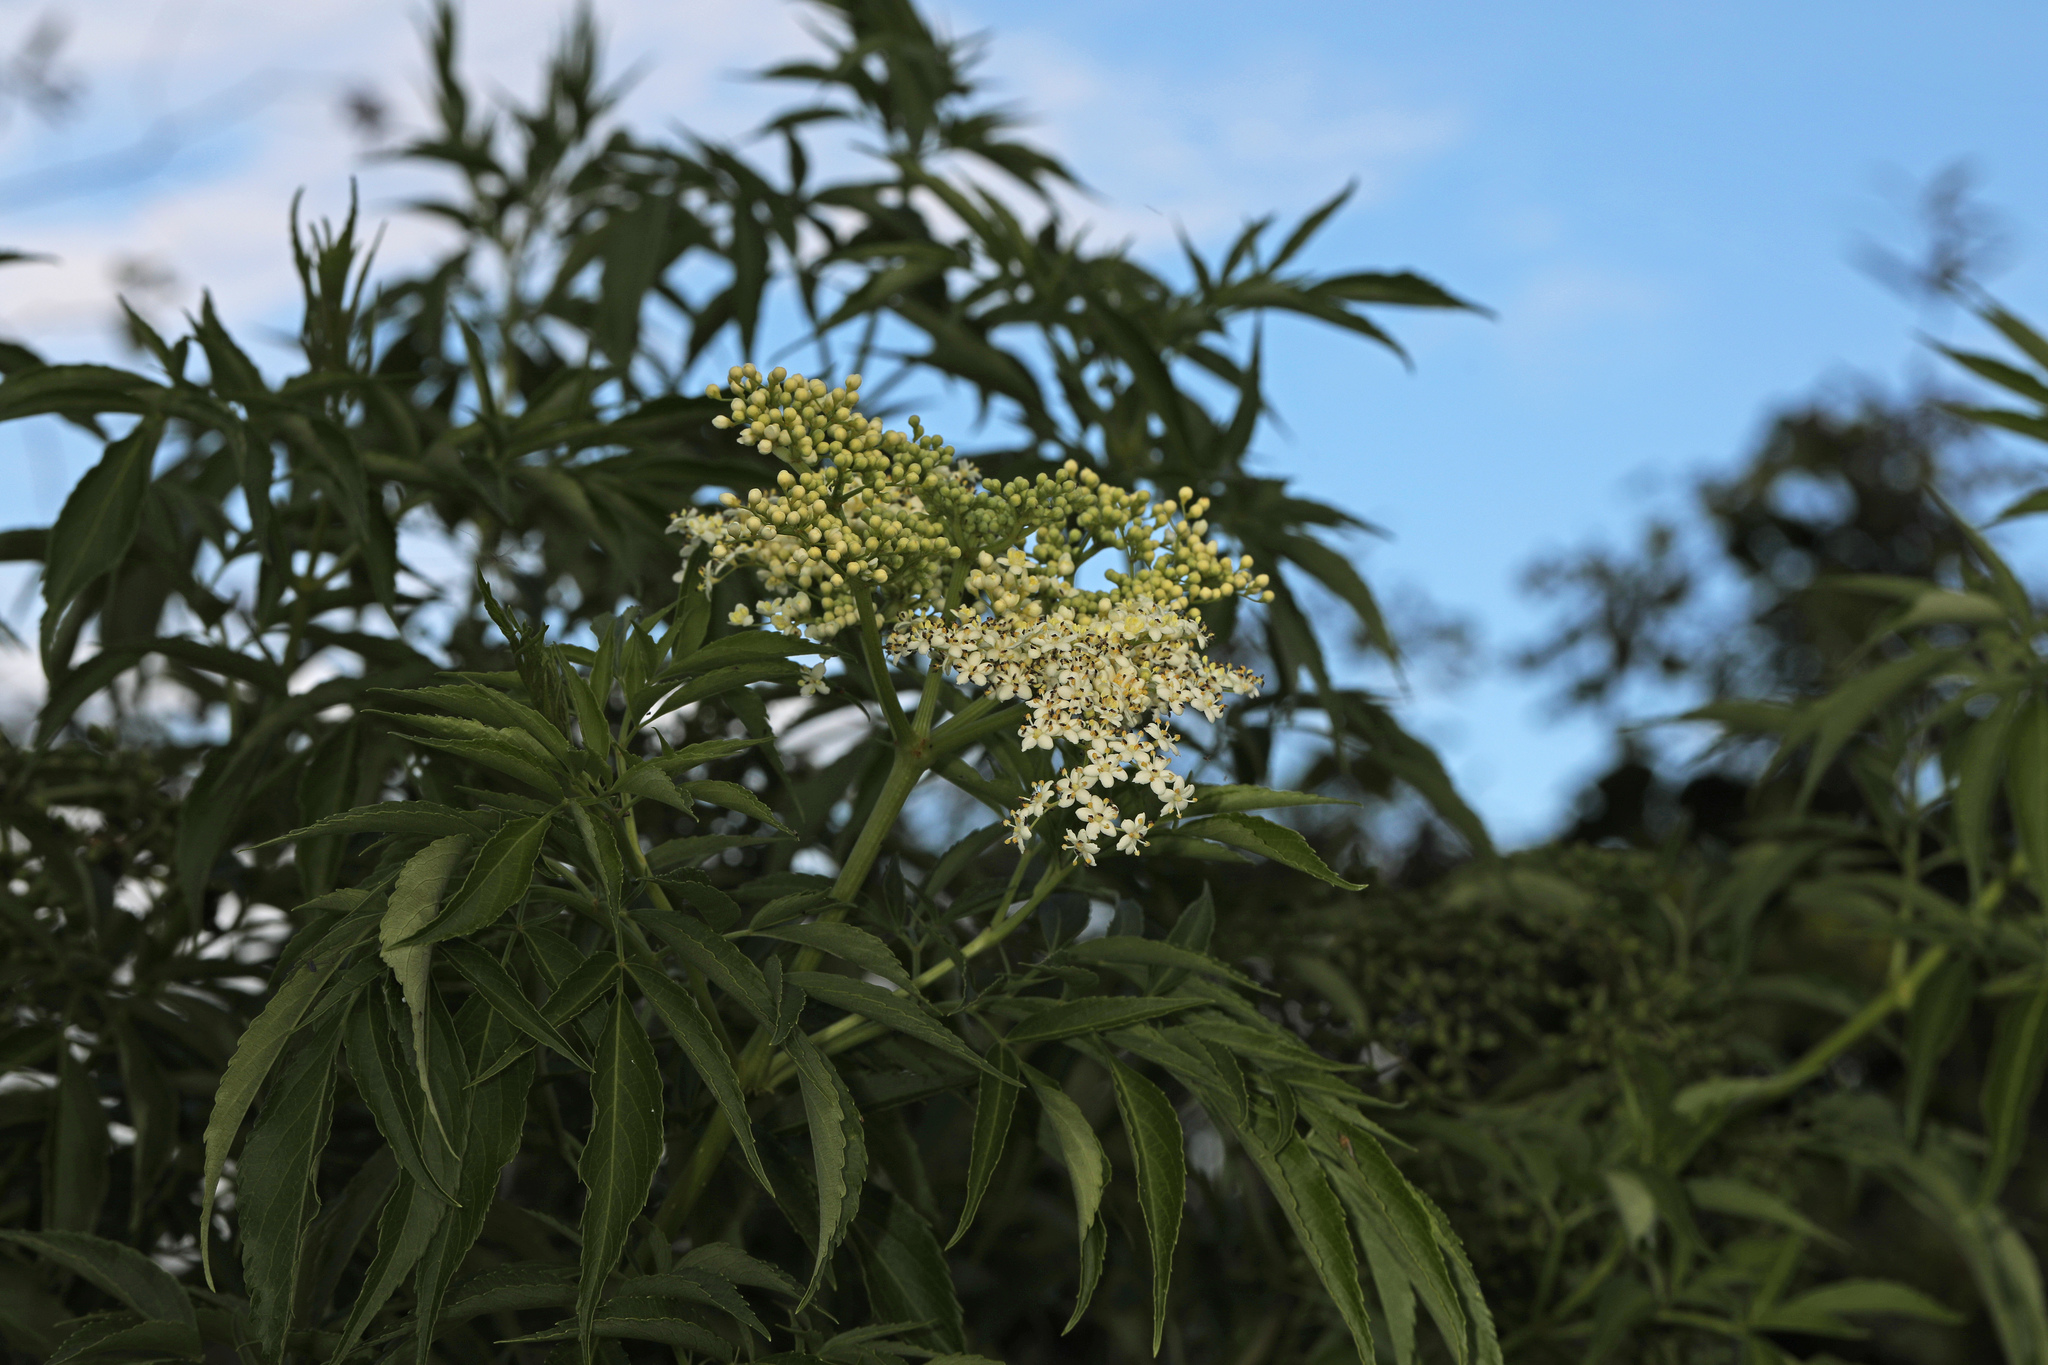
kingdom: Plantae
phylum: Tracheophyta
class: Magnoliopsida
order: Dipsacales
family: Viburnaceae
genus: Sambucus
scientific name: Sambucus canadensis
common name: American elder
